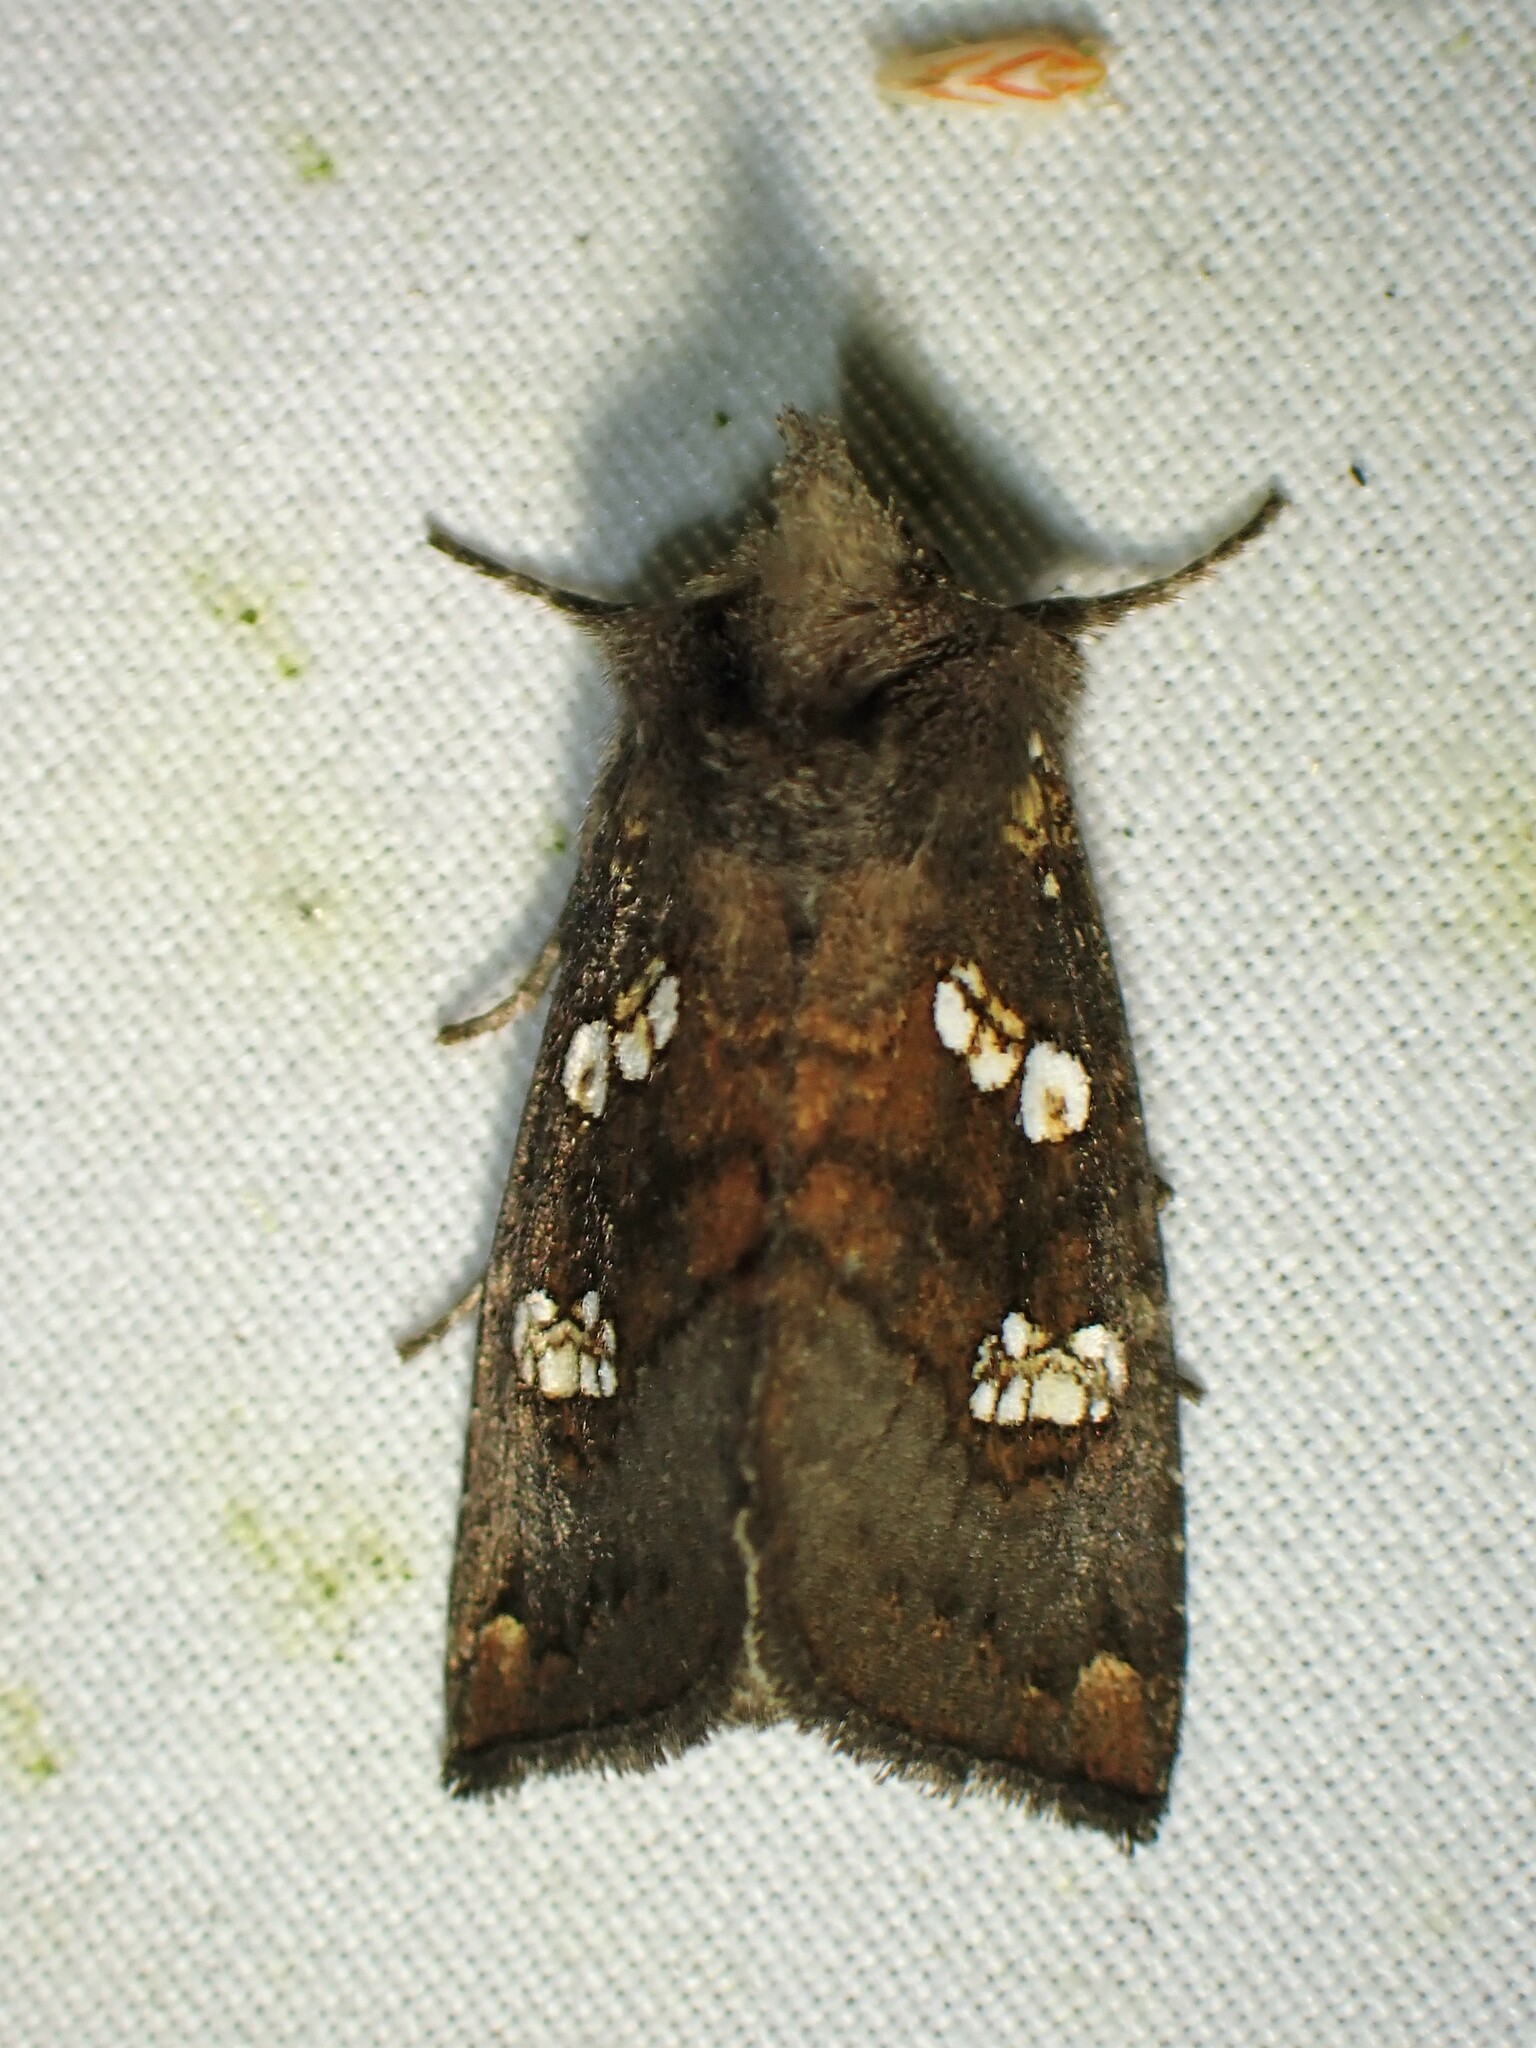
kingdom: Animalia
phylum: Arthropoda
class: Insecta
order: Lepidoptera
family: Noctuidae
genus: Papaipema
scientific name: Papaipema unimoda
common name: Meadow rue borer moth
